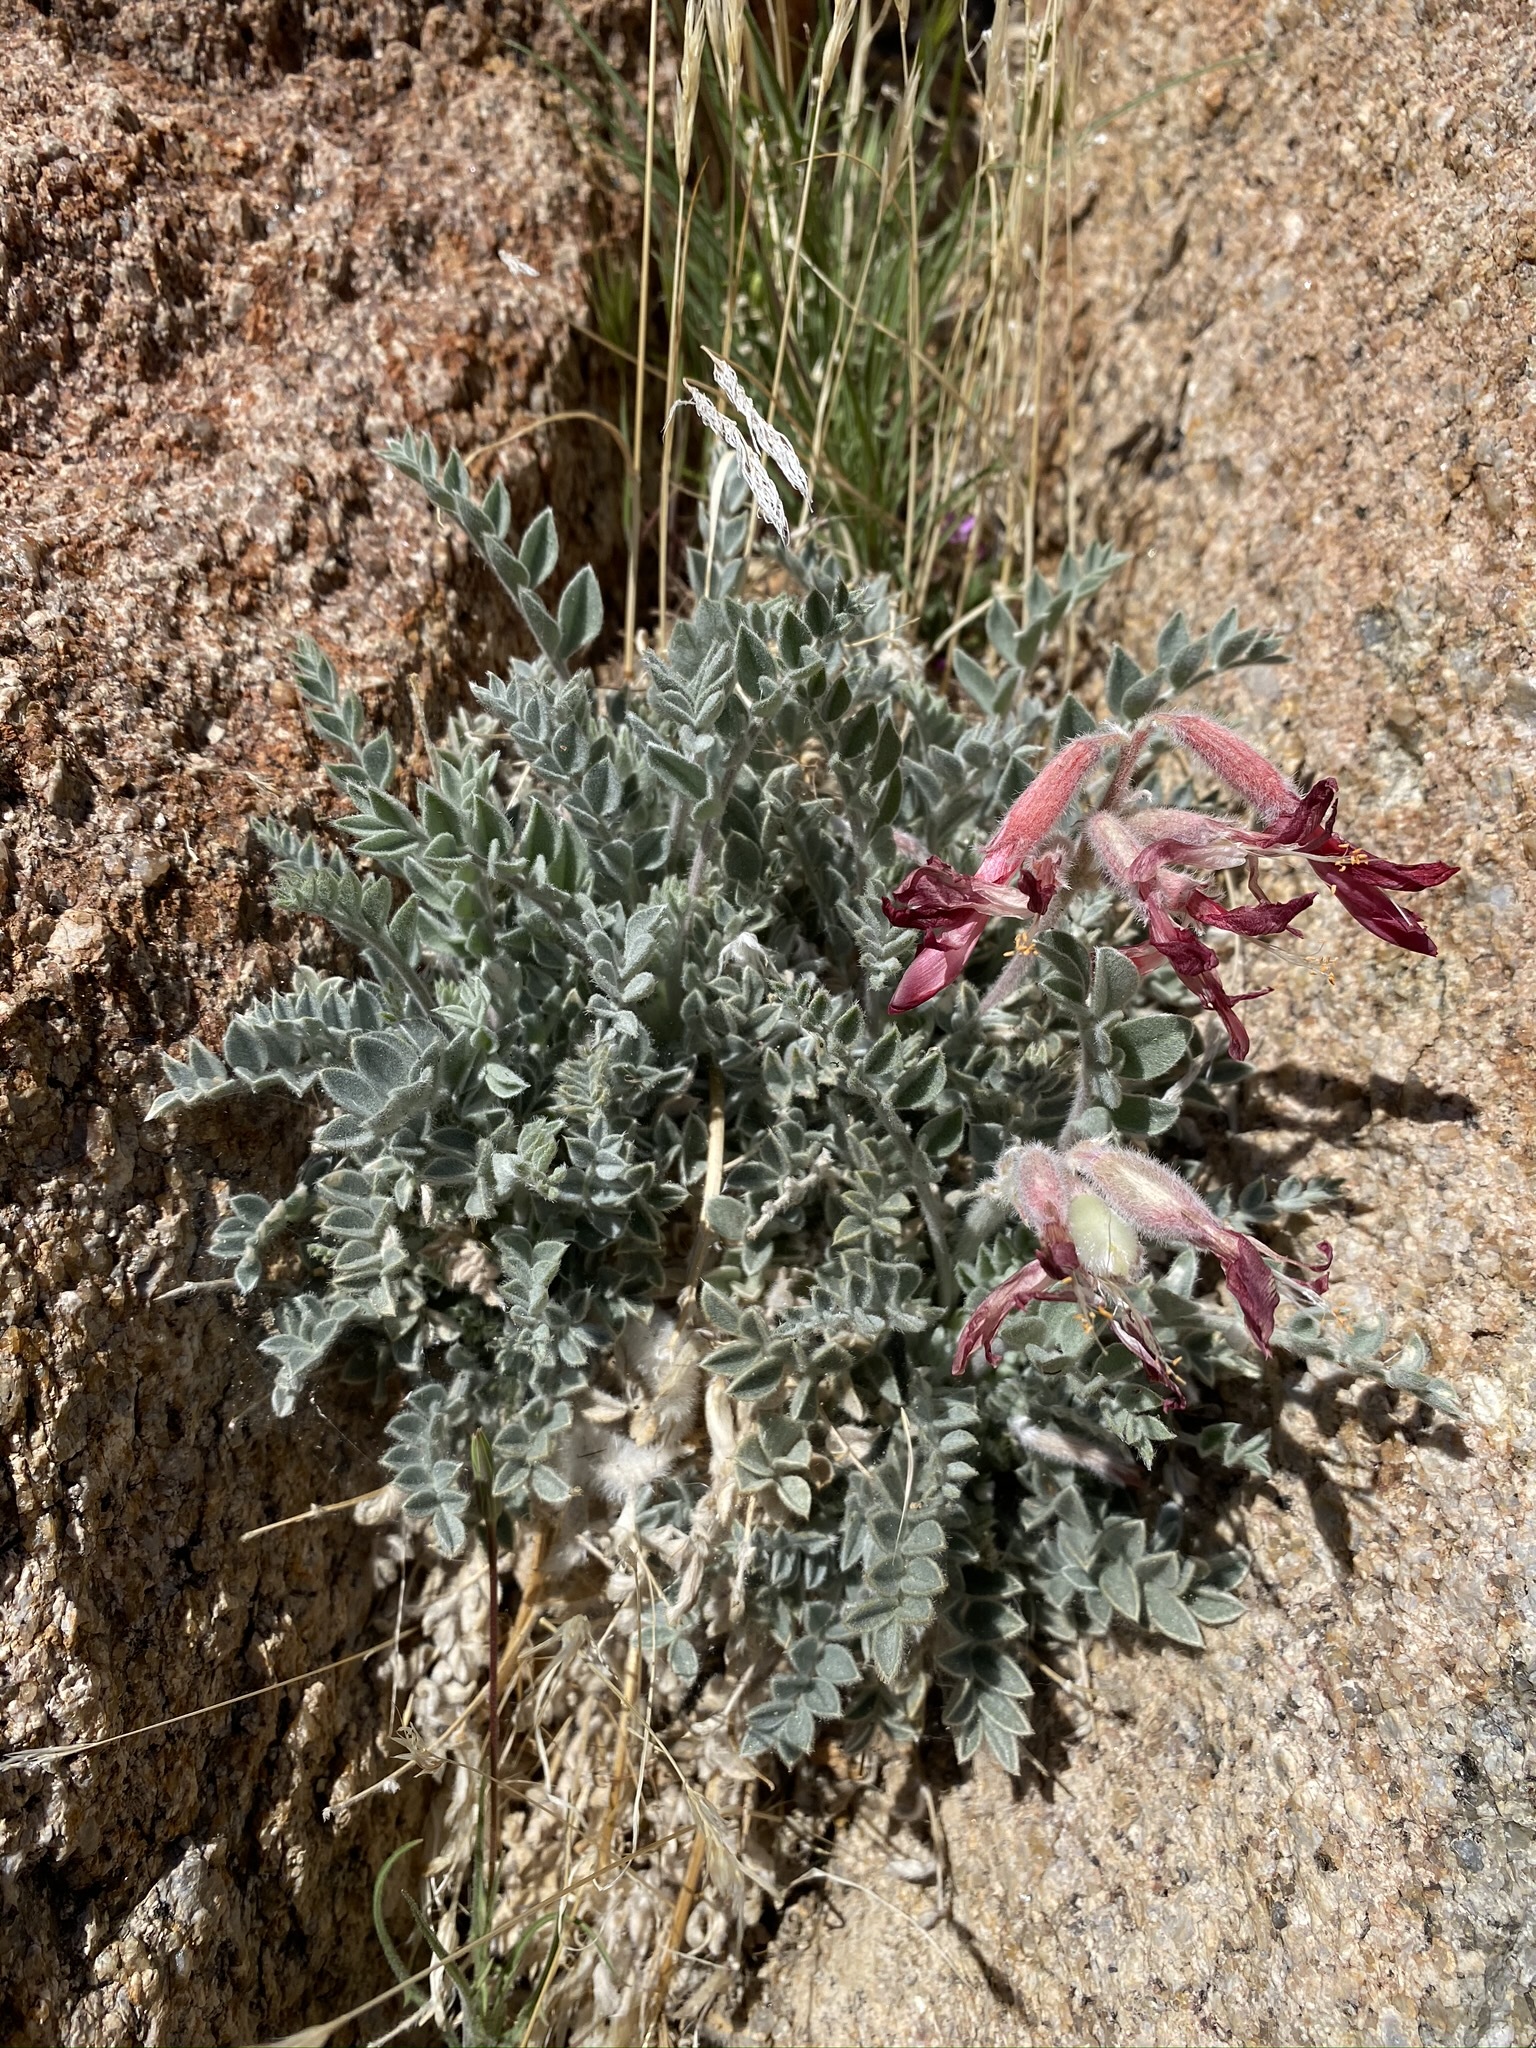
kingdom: Plantae
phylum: Tracheophyta
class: Magnoliopsida
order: Fabales
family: Fabaceae
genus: Astragalus
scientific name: Astragalus coccineus
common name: Scarlet milk-vetch
